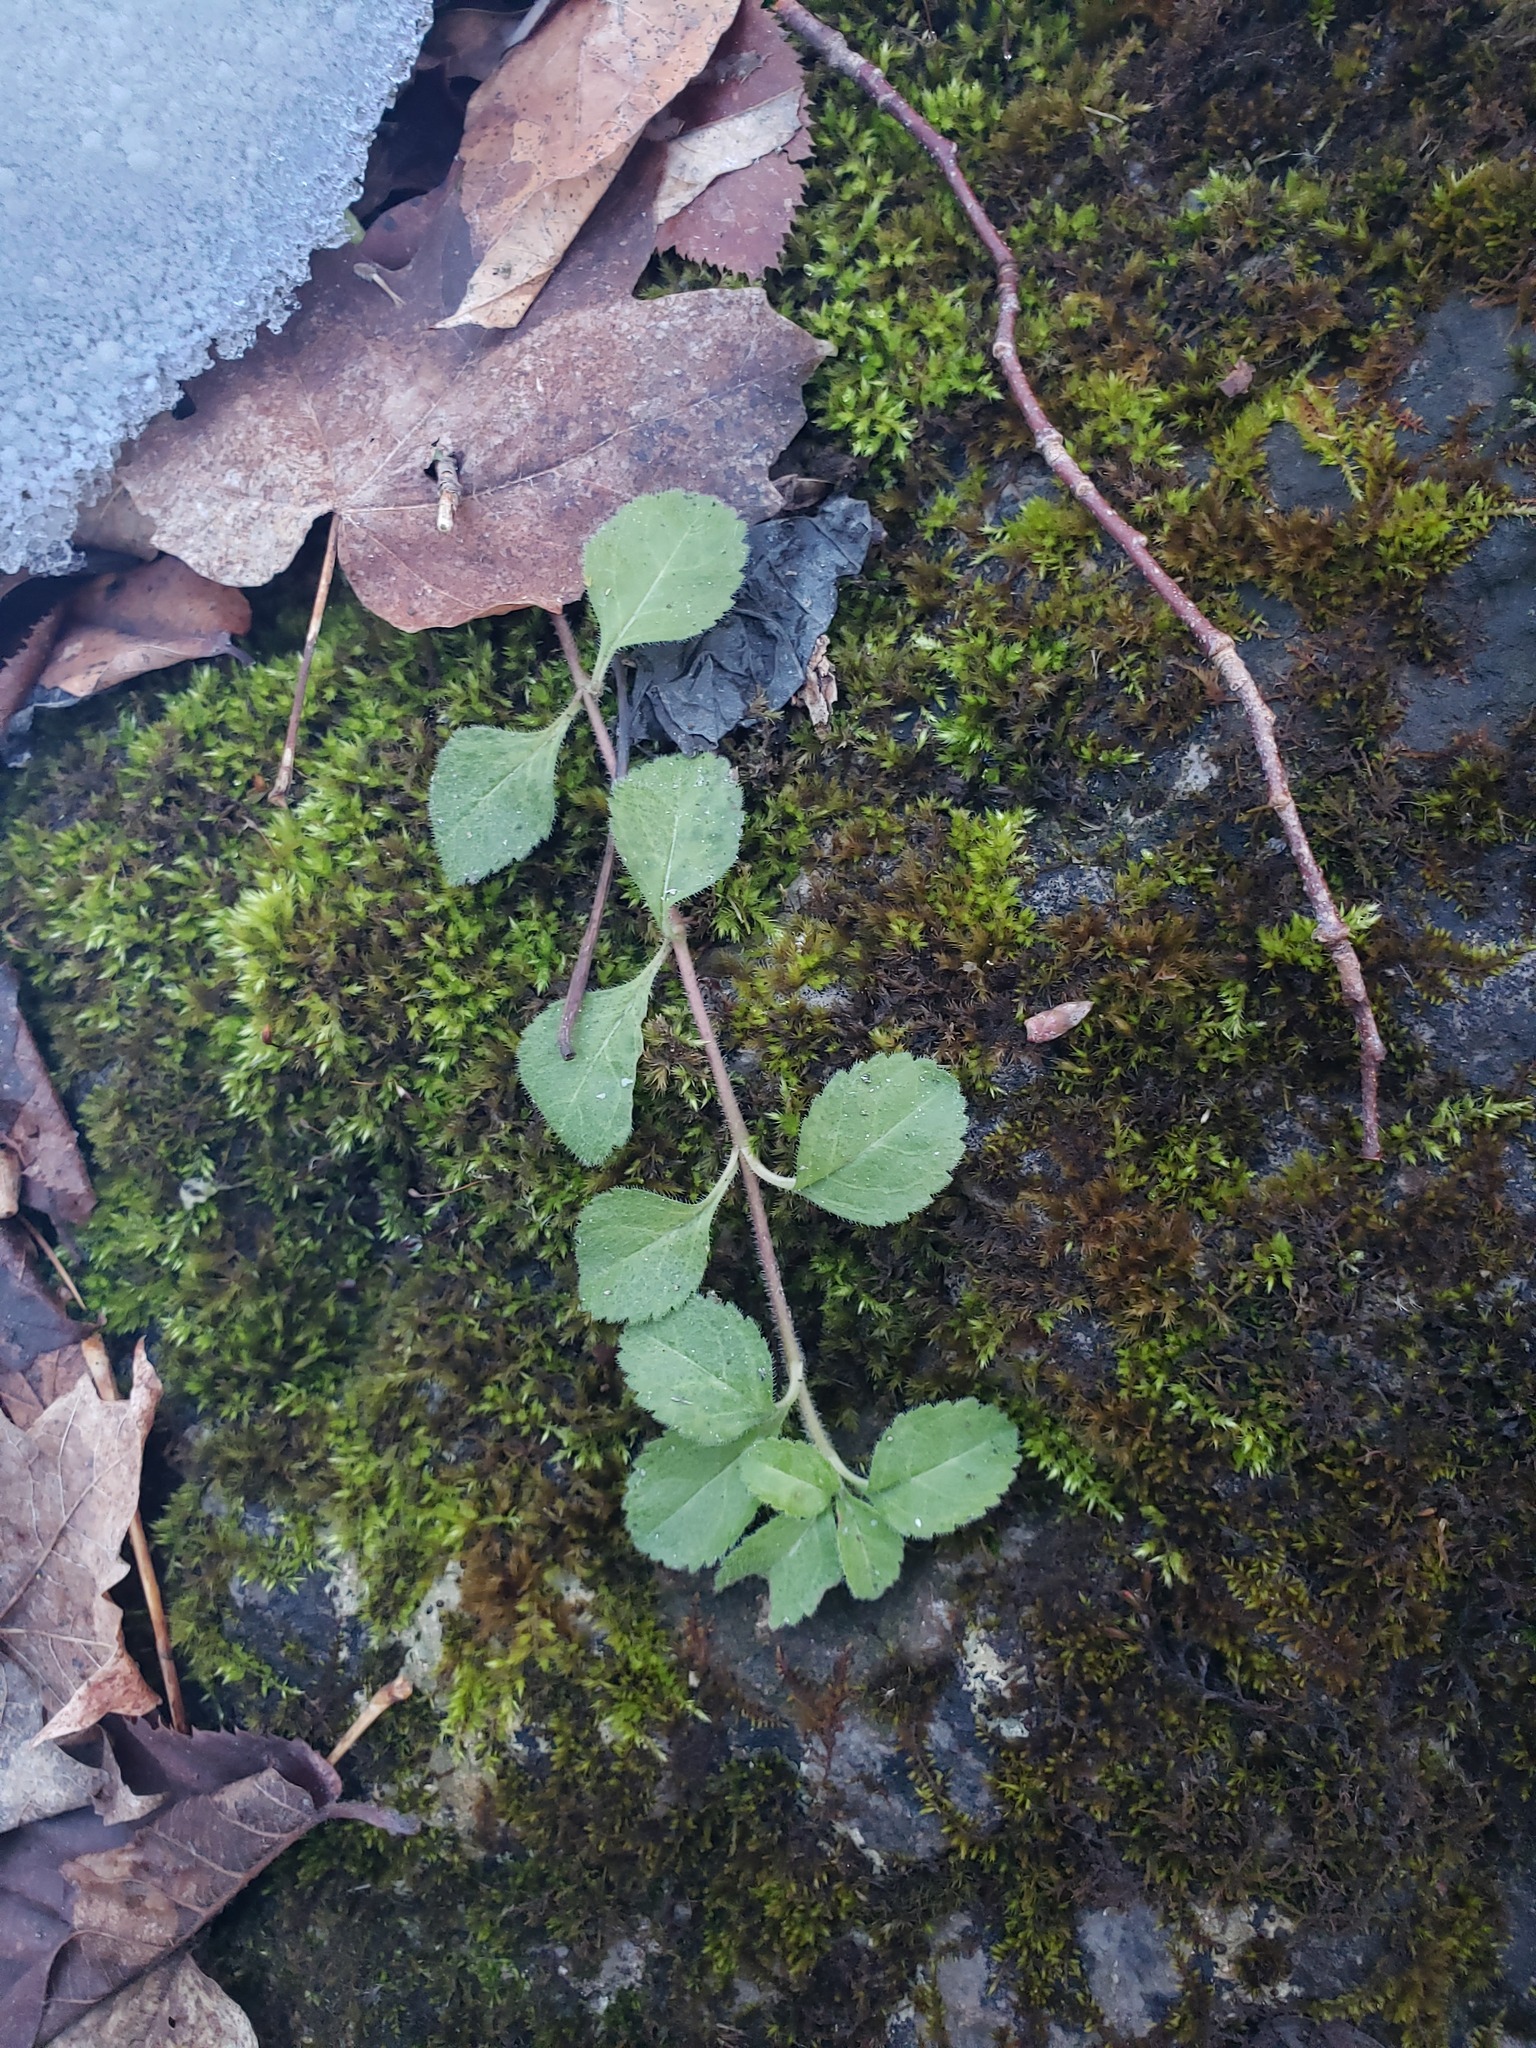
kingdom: Plantae
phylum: Tracheophyta
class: Magnoliopsida
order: Lamiales
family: Plantaginaceae
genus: Veronica
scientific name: Veronica officinalis
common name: Common speedwell
